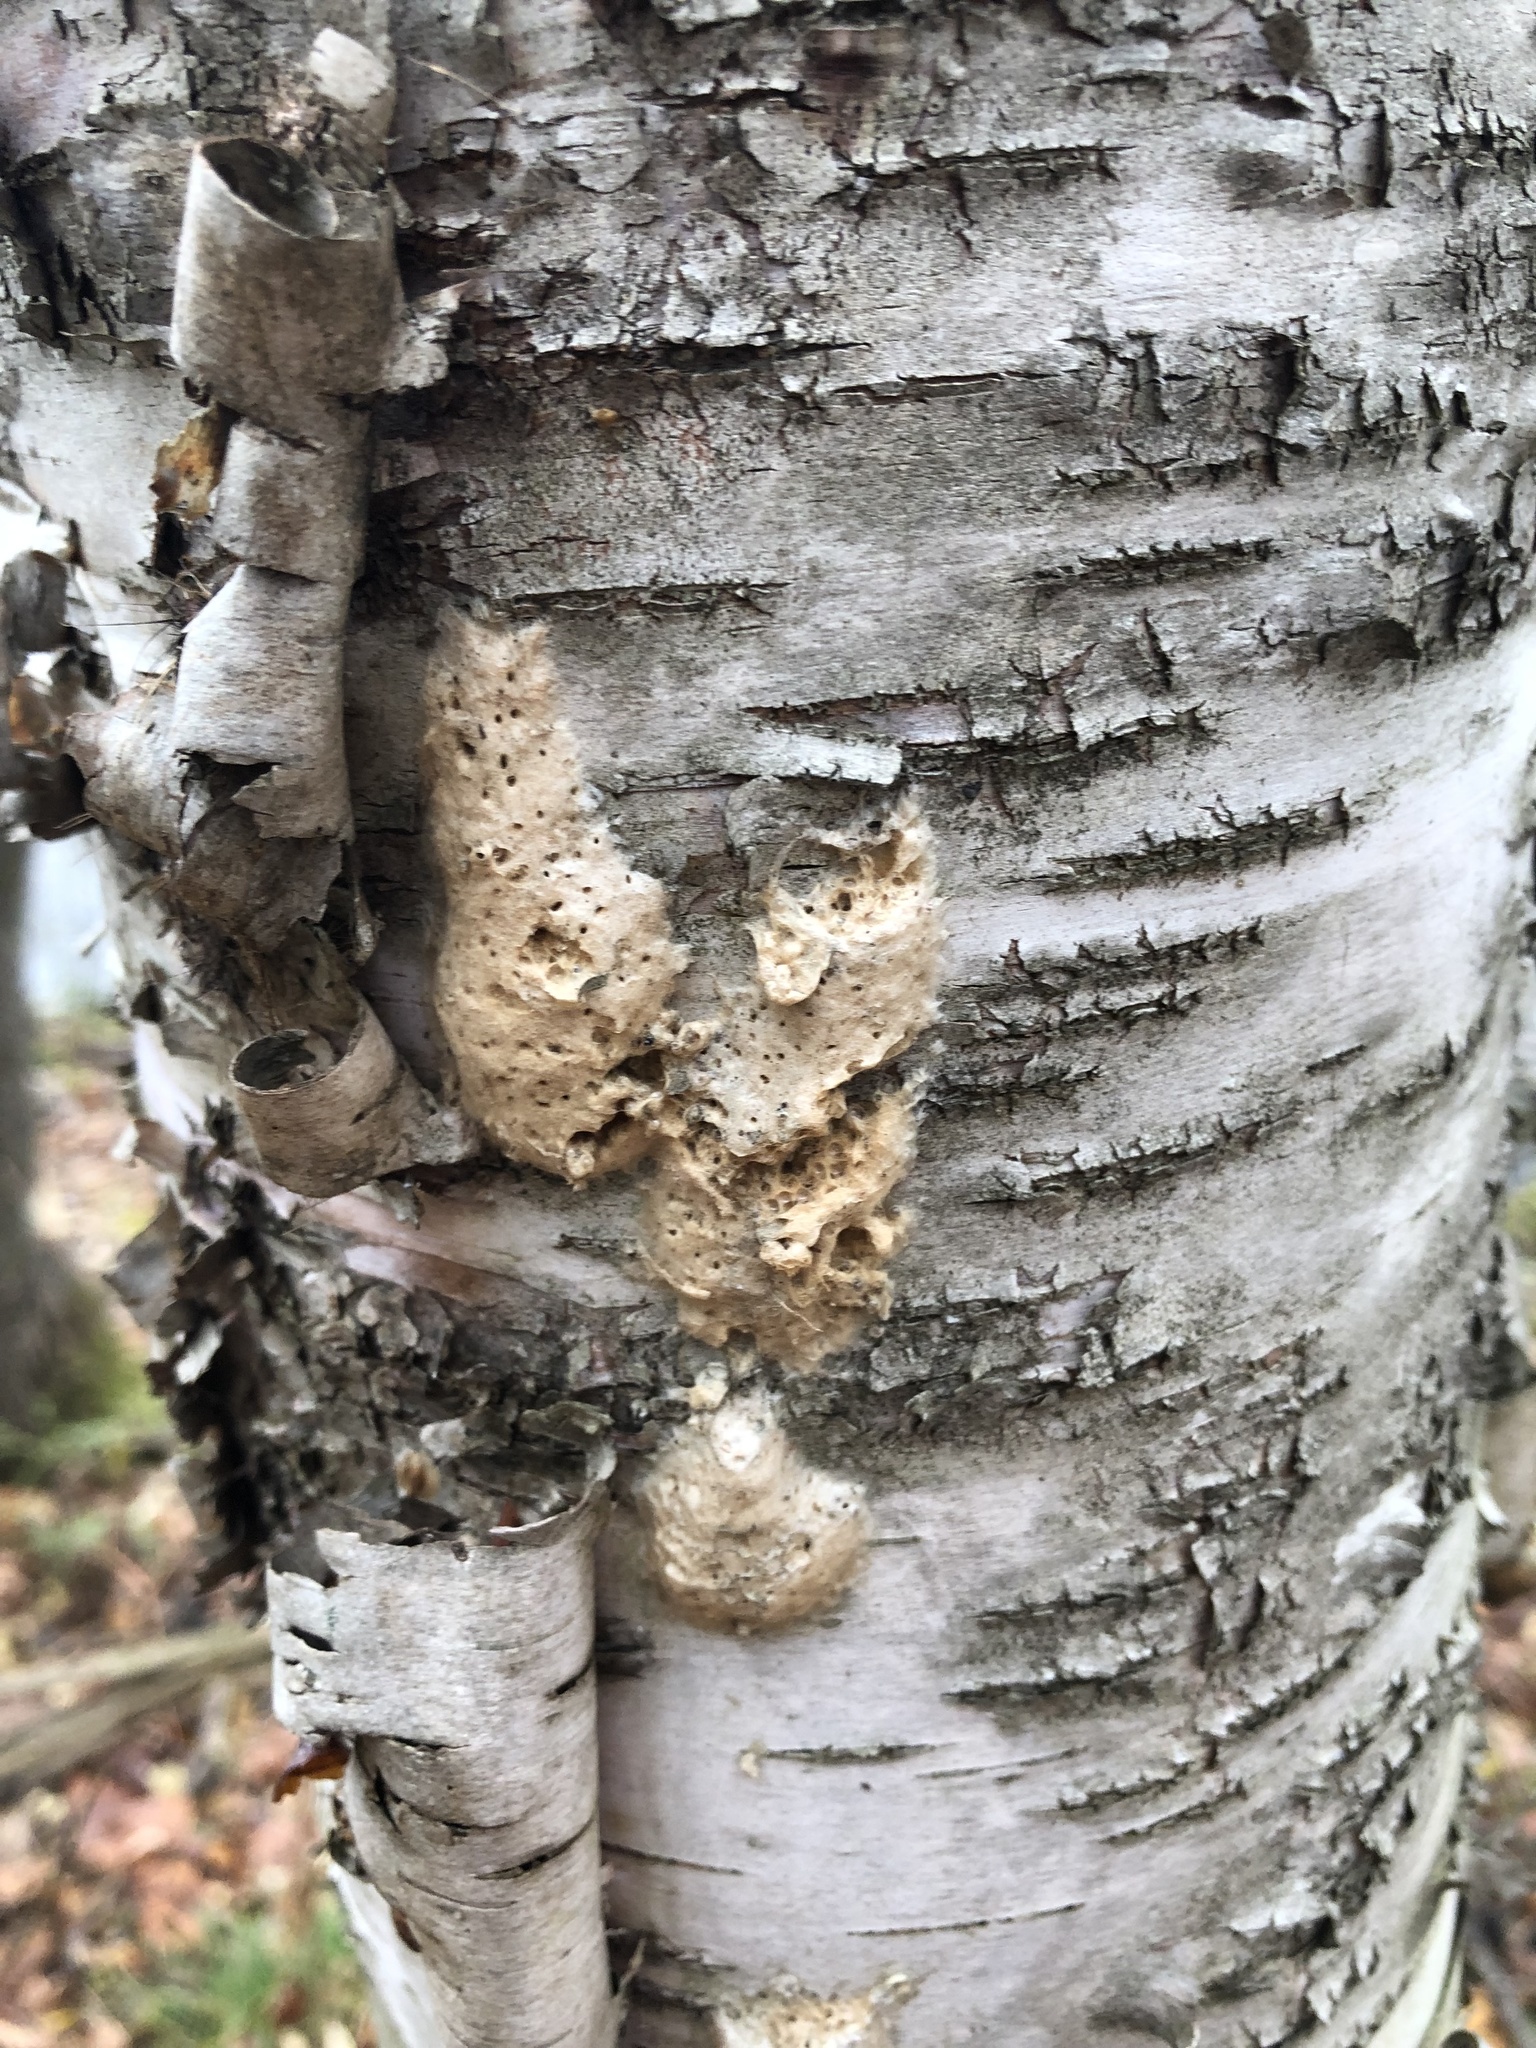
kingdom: Animalia
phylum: Arthropoda
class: Insecta
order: Lepidoptera
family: Erebidae
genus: Lymantria
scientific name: Lymantria dispar
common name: Gypsy moth
